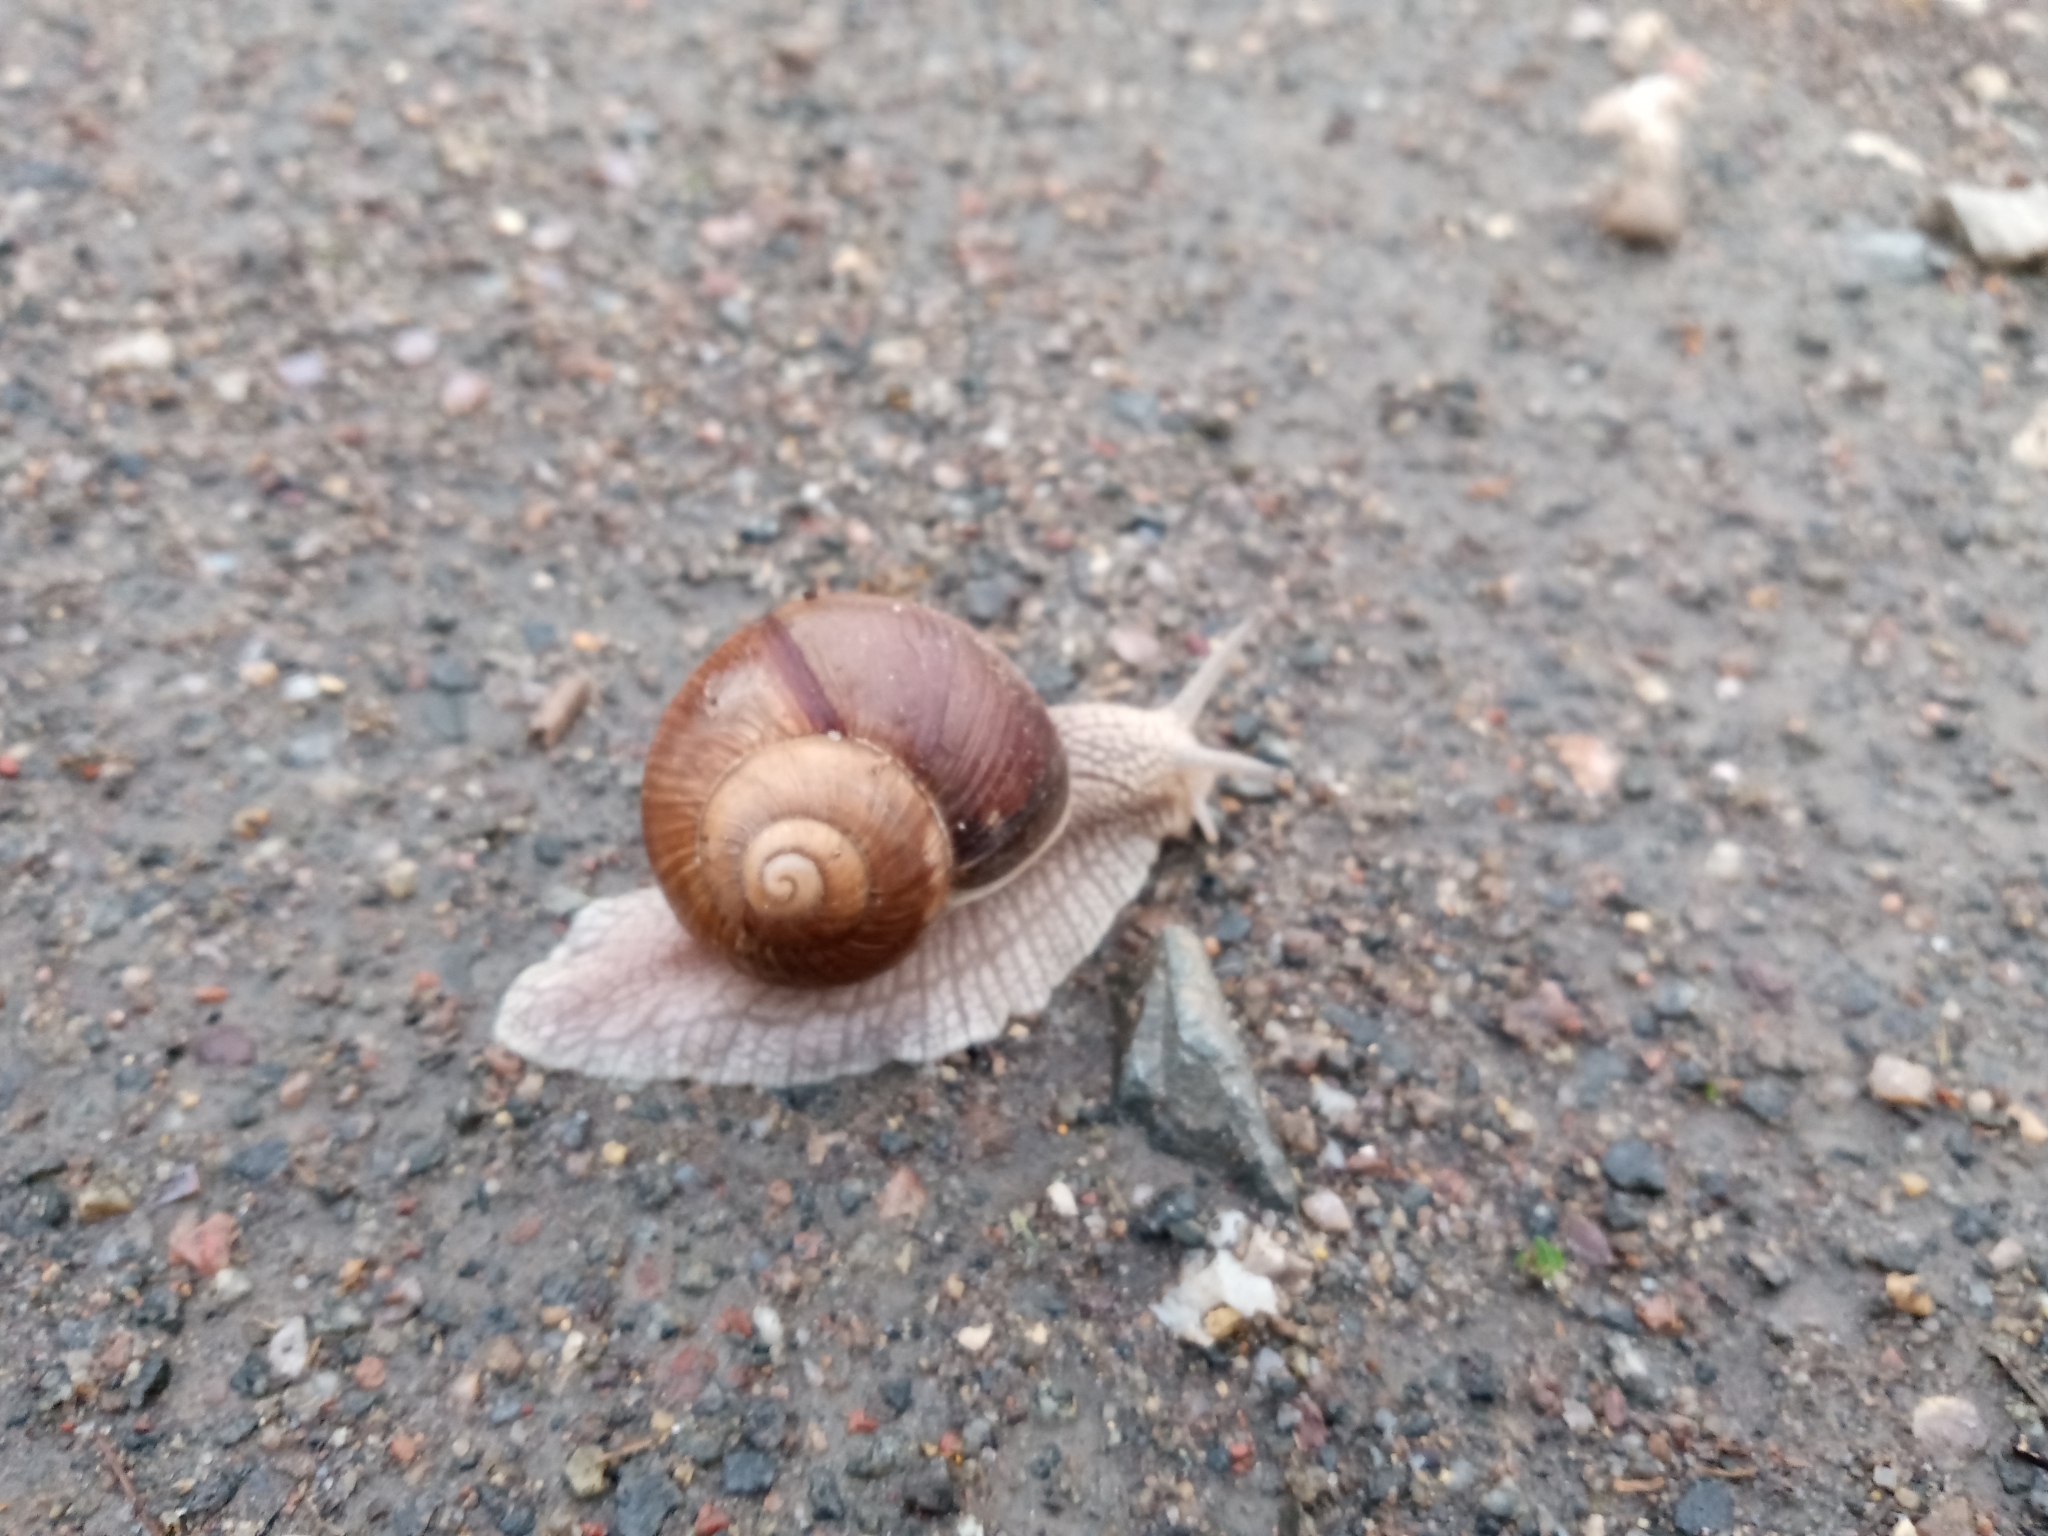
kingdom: Animalia
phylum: Mollusca
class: Gastropoda
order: Stylommatophora
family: Helicidae
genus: Helix
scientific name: Helix pomatia
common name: Roman snail
